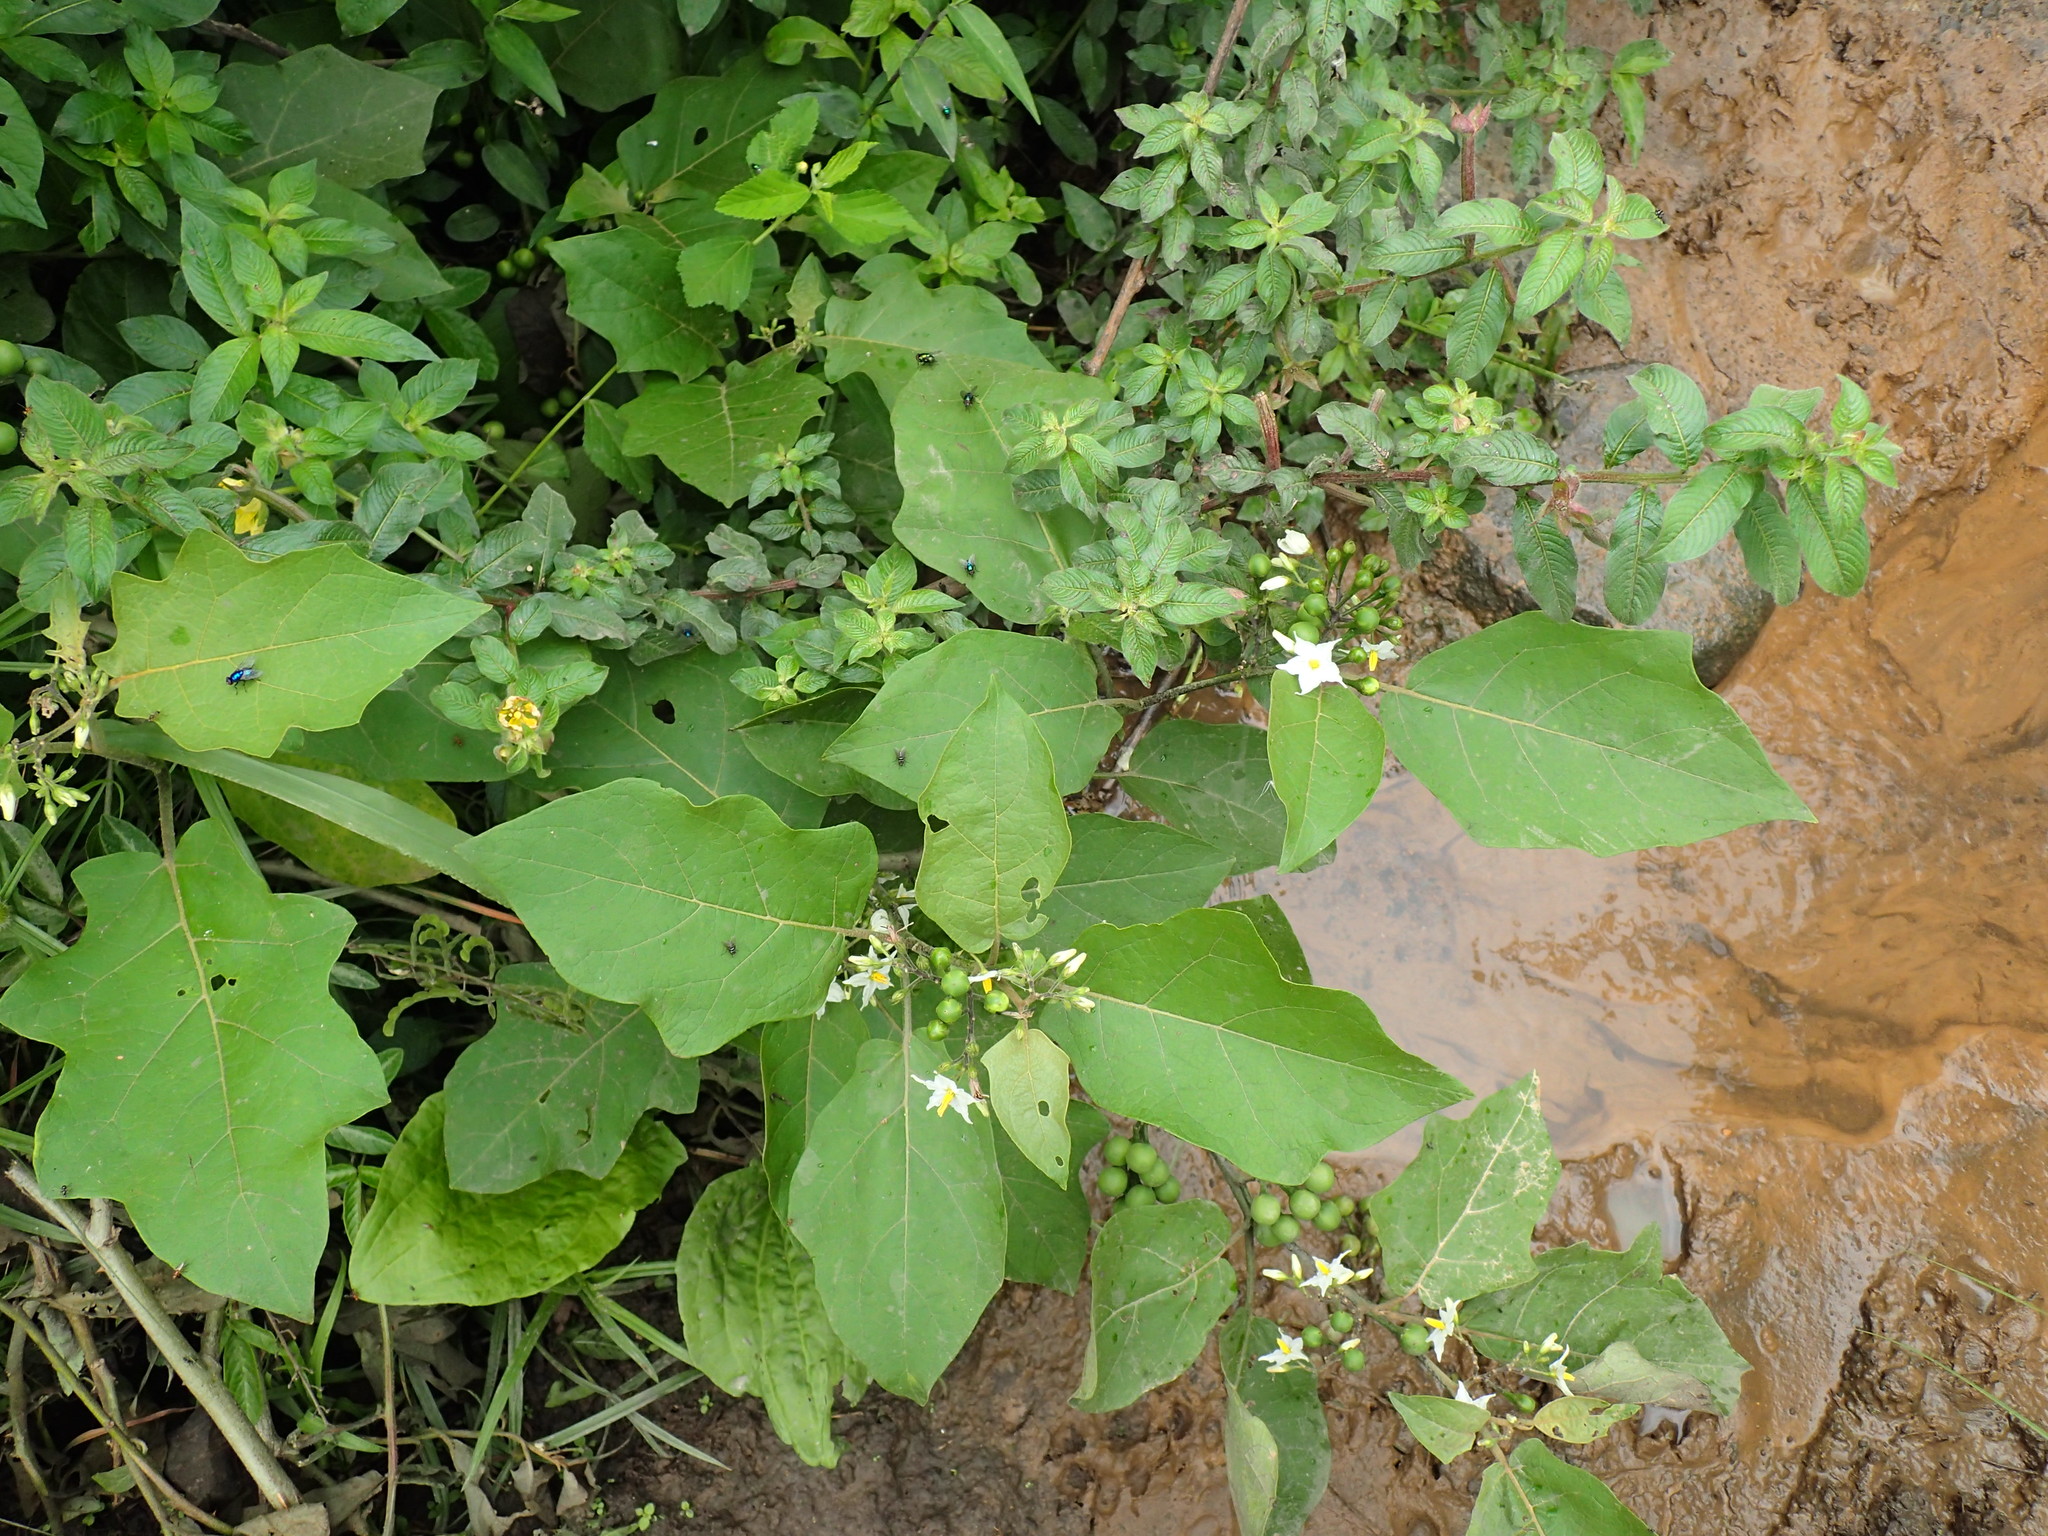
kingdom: Plantae
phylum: Tracheophyta
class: Magnoliopsida
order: Solanales
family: Solanaceae
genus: Solanum
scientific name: Solanum torvum
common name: Turkey berry
